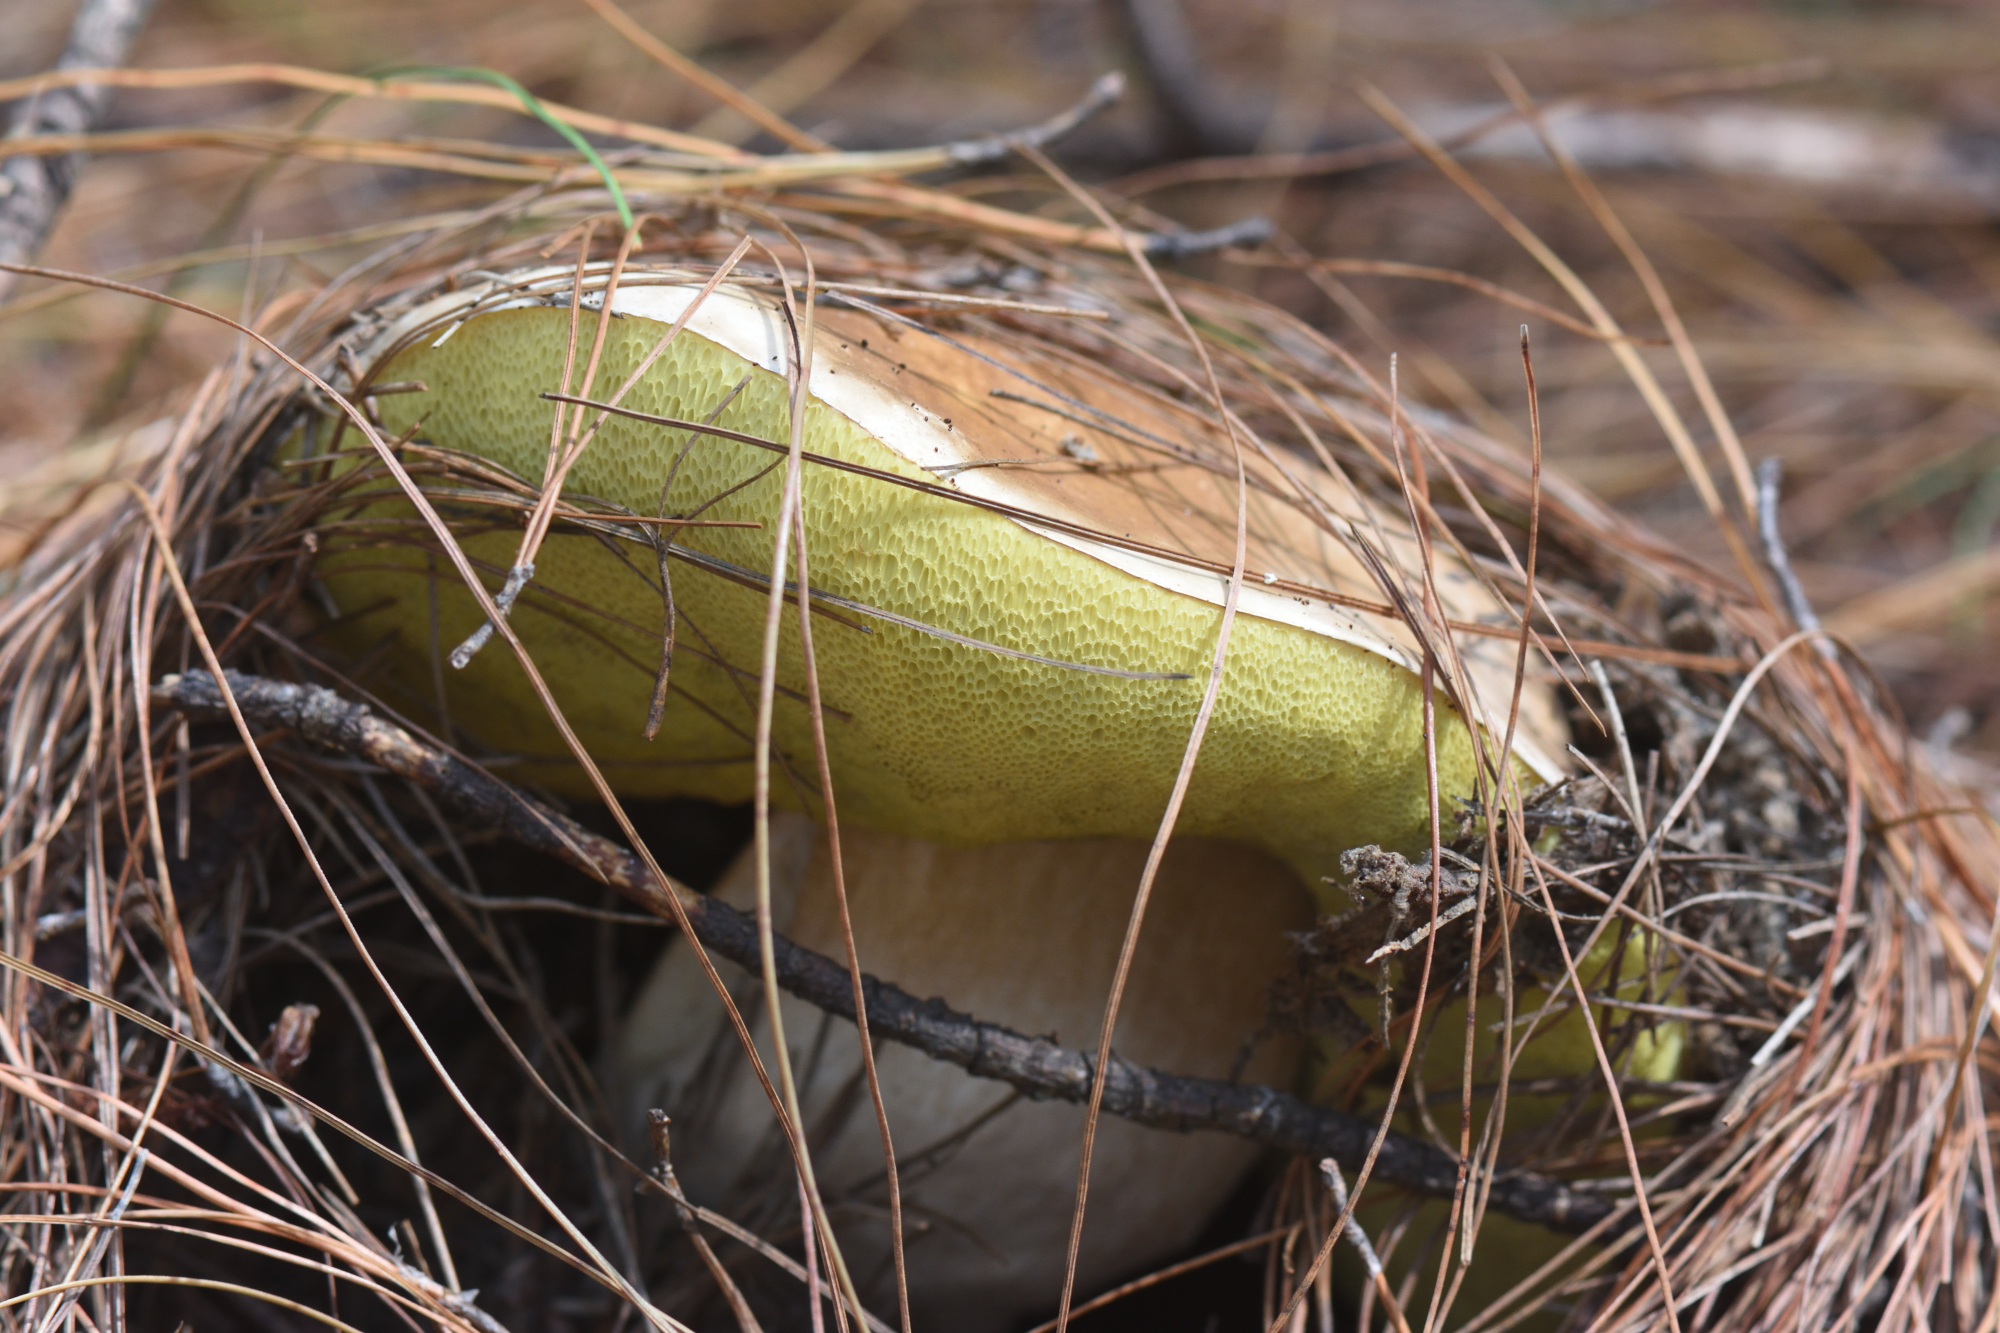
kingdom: Fungi
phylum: Basidiomycota
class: Agaricomycetes
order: Boletales
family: Boletaceae
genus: Boletus
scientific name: Boletus edulis
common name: Cep
